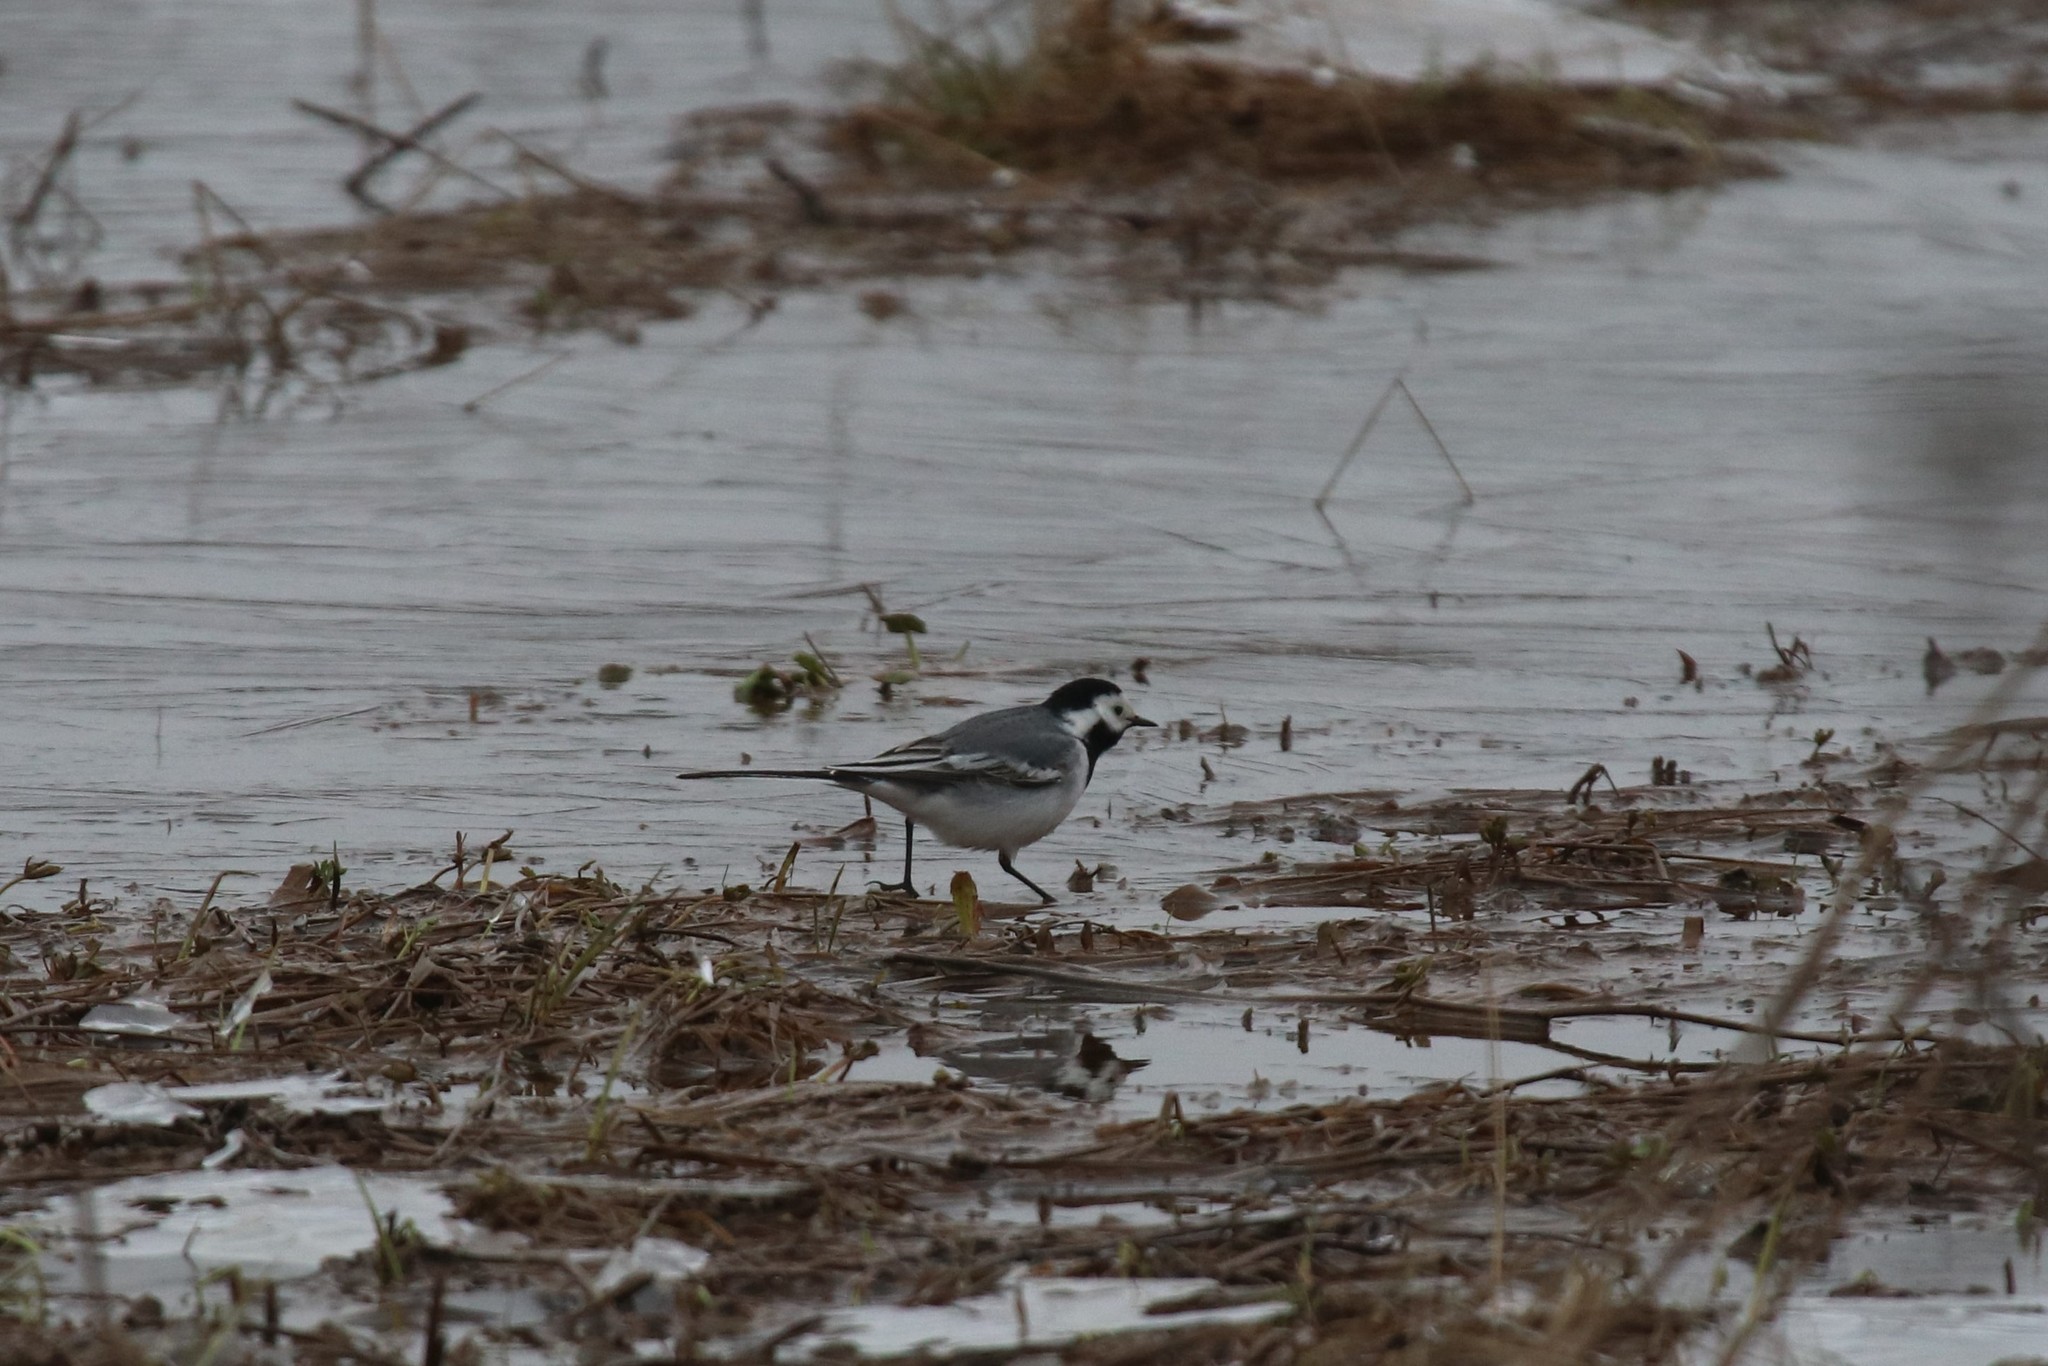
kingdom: Animalia
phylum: Chordata
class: Aves
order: Passeriformes
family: Motacillidae
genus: Motacilla
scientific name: Motacilla alba
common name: White wagtail
